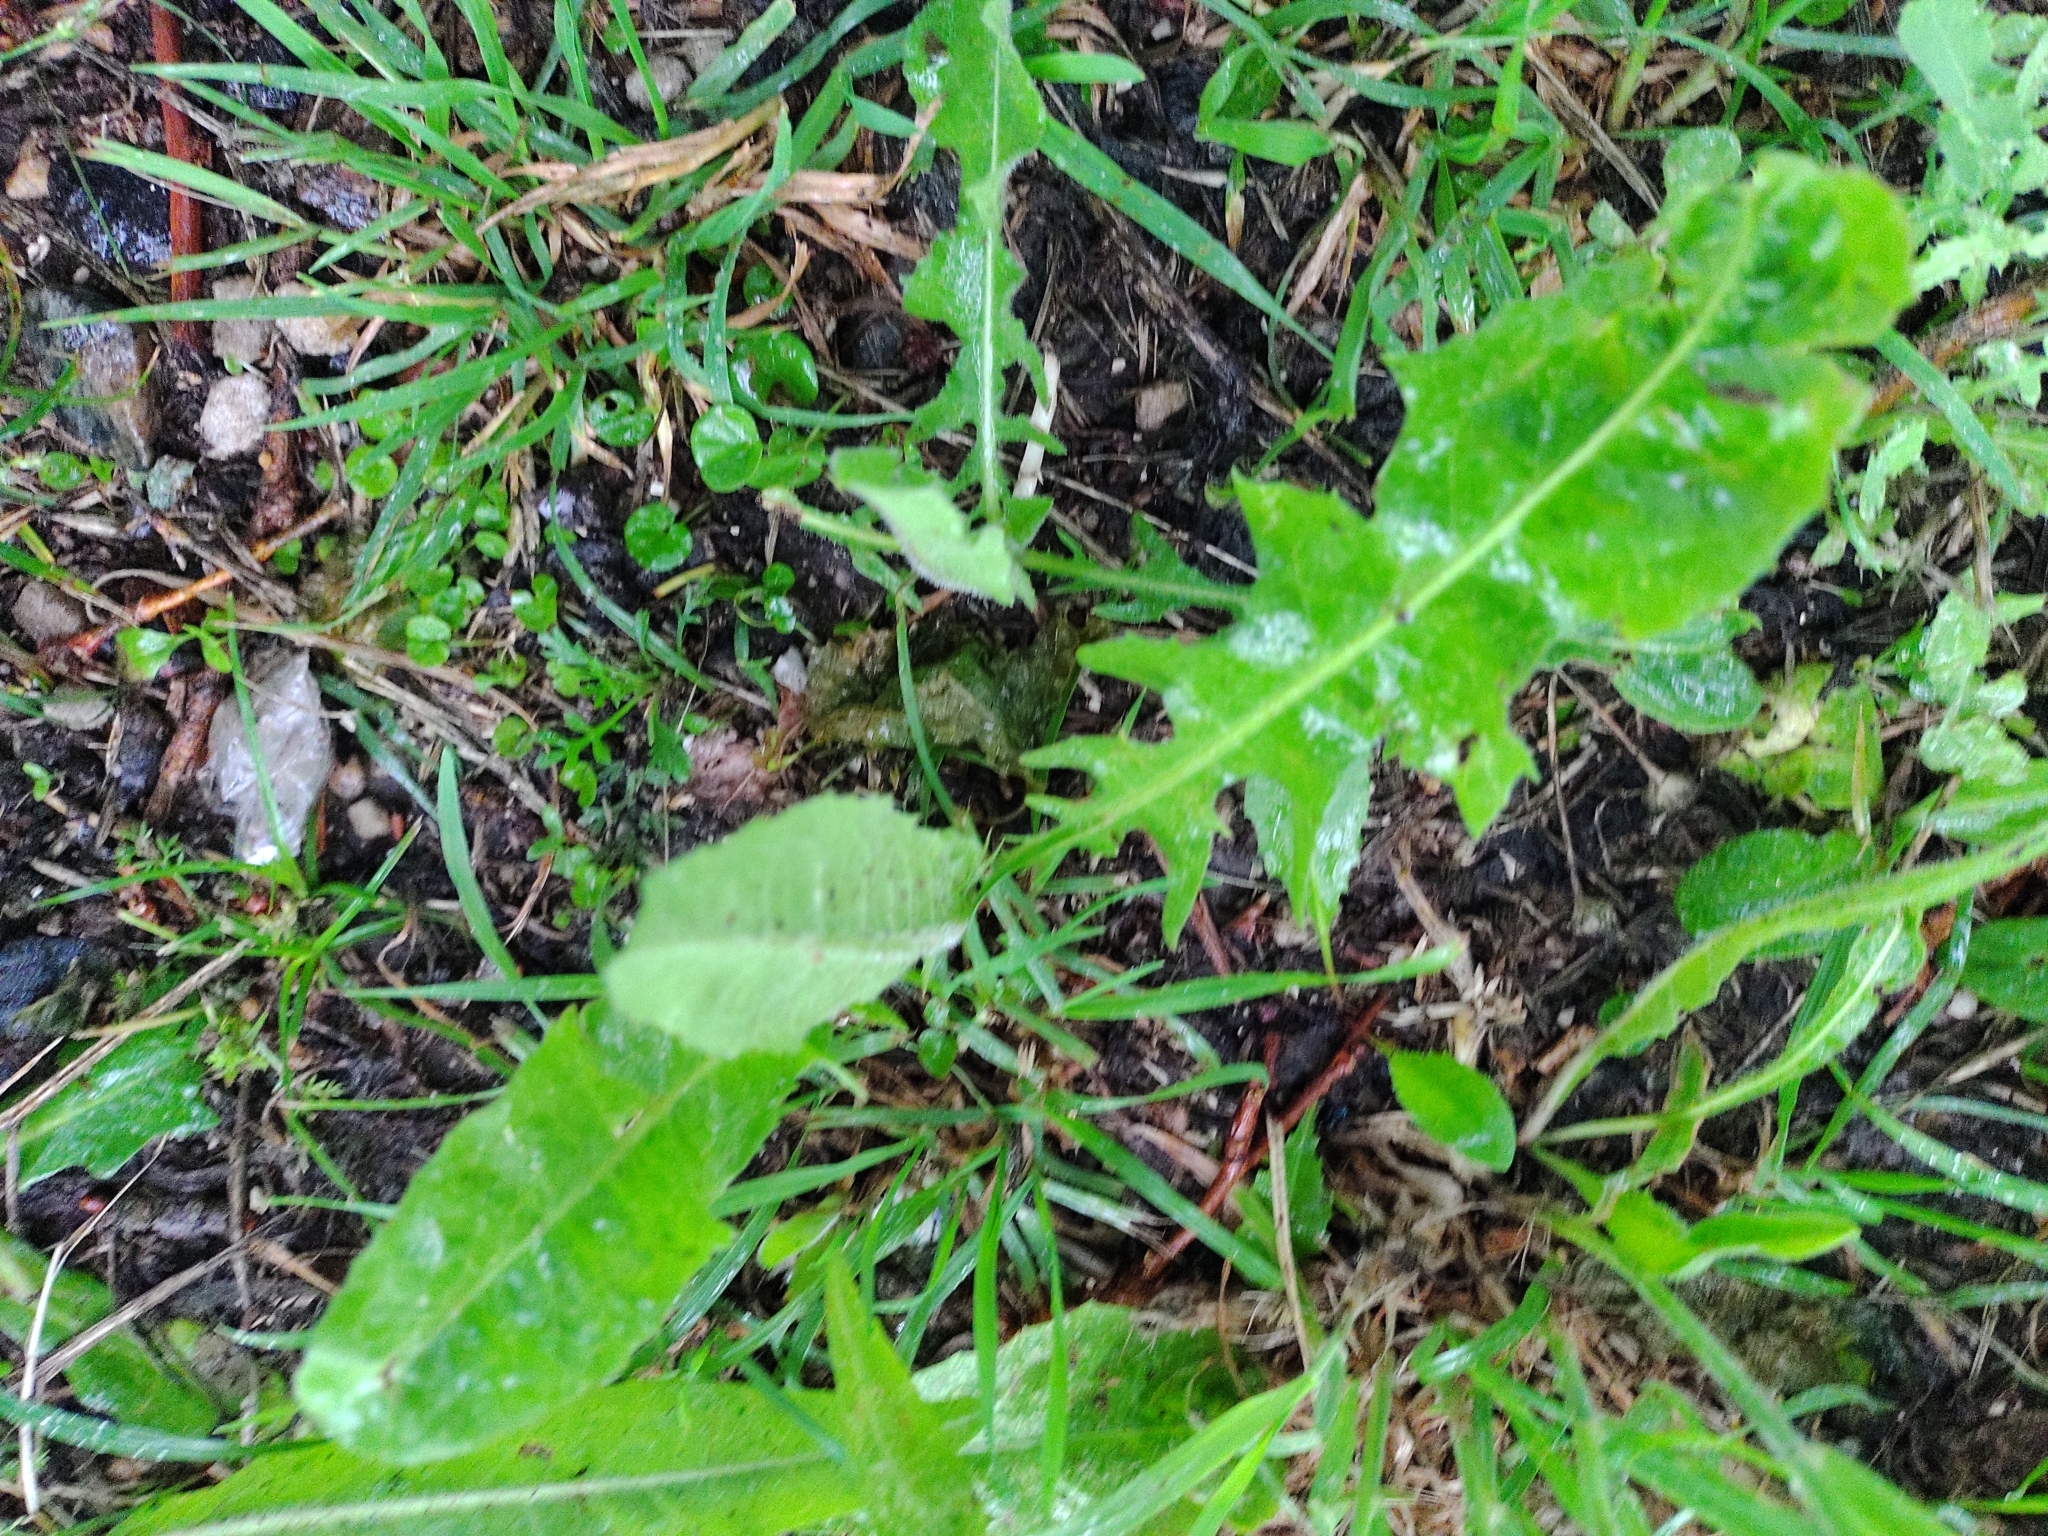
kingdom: Plantae
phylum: Tracheophyta
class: Magnoliopsida
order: Asterales
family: Asteraceae
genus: Taraxacum
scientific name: Taraxacum officinale
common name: Common dandelion
